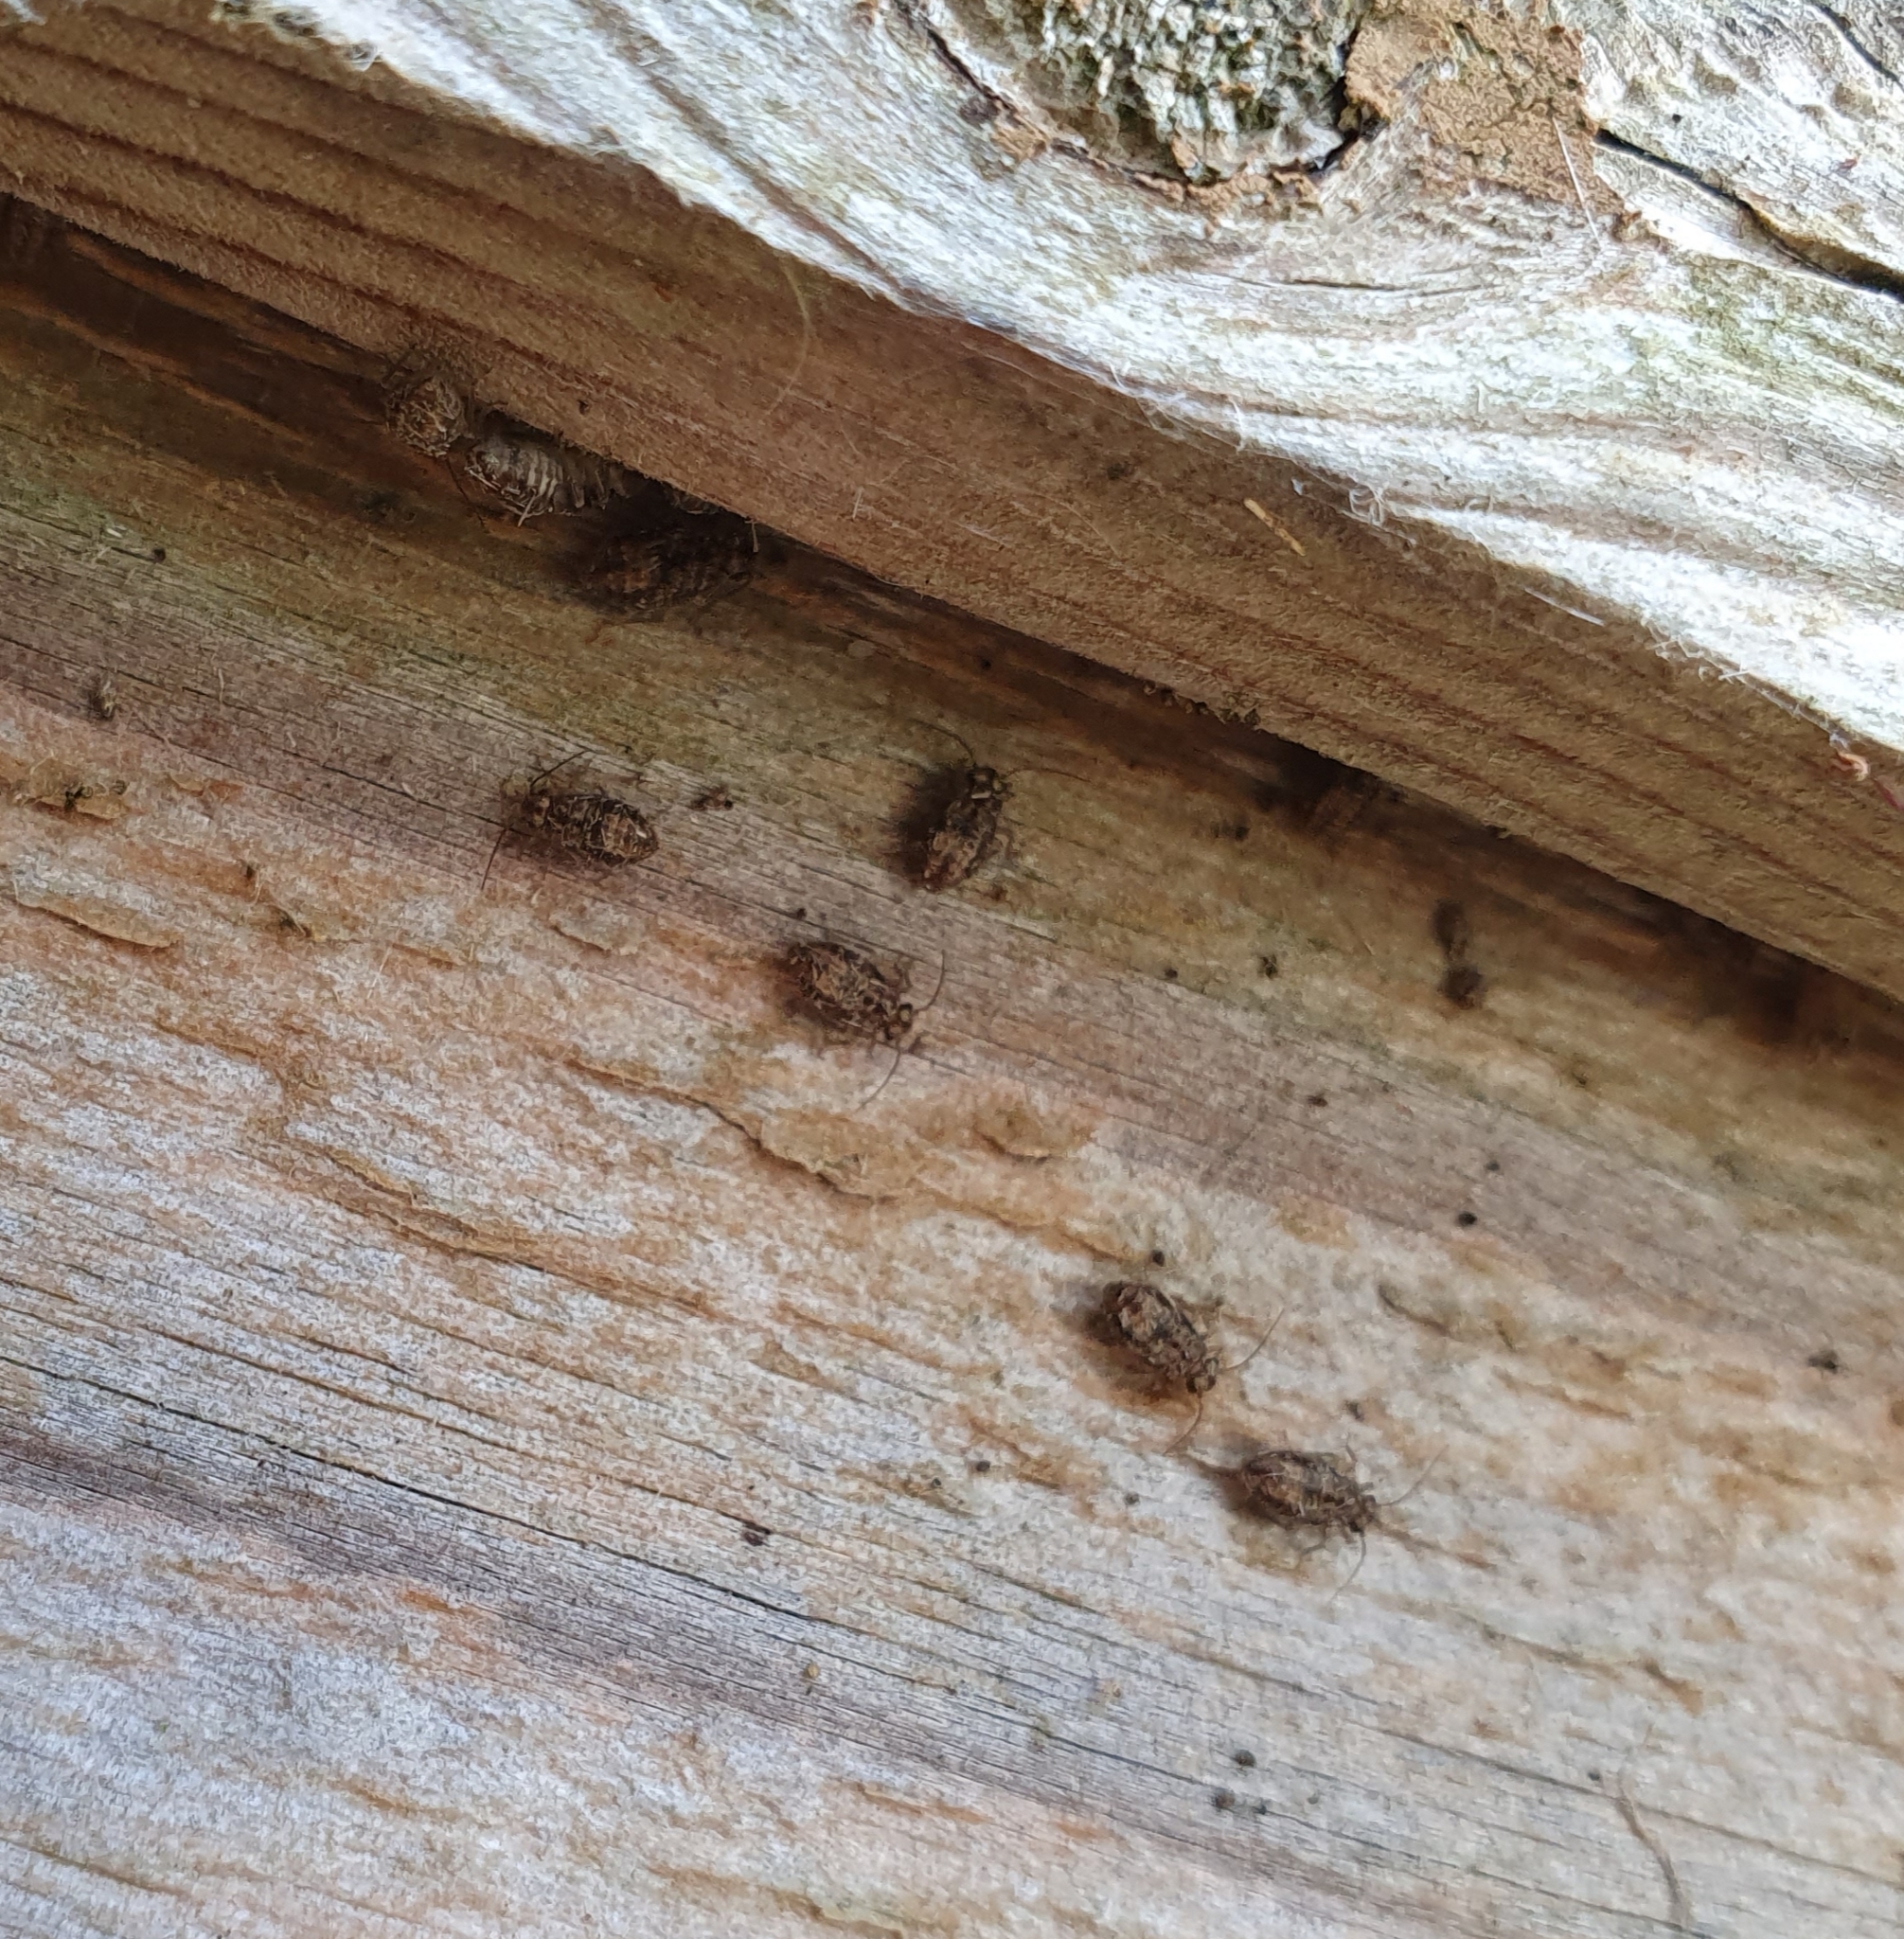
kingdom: Animalia
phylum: Arthropoda
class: Insecta
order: Psocodea
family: Myopsocidae
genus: Nimbopsocus
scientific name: Nimbopsocus australis
